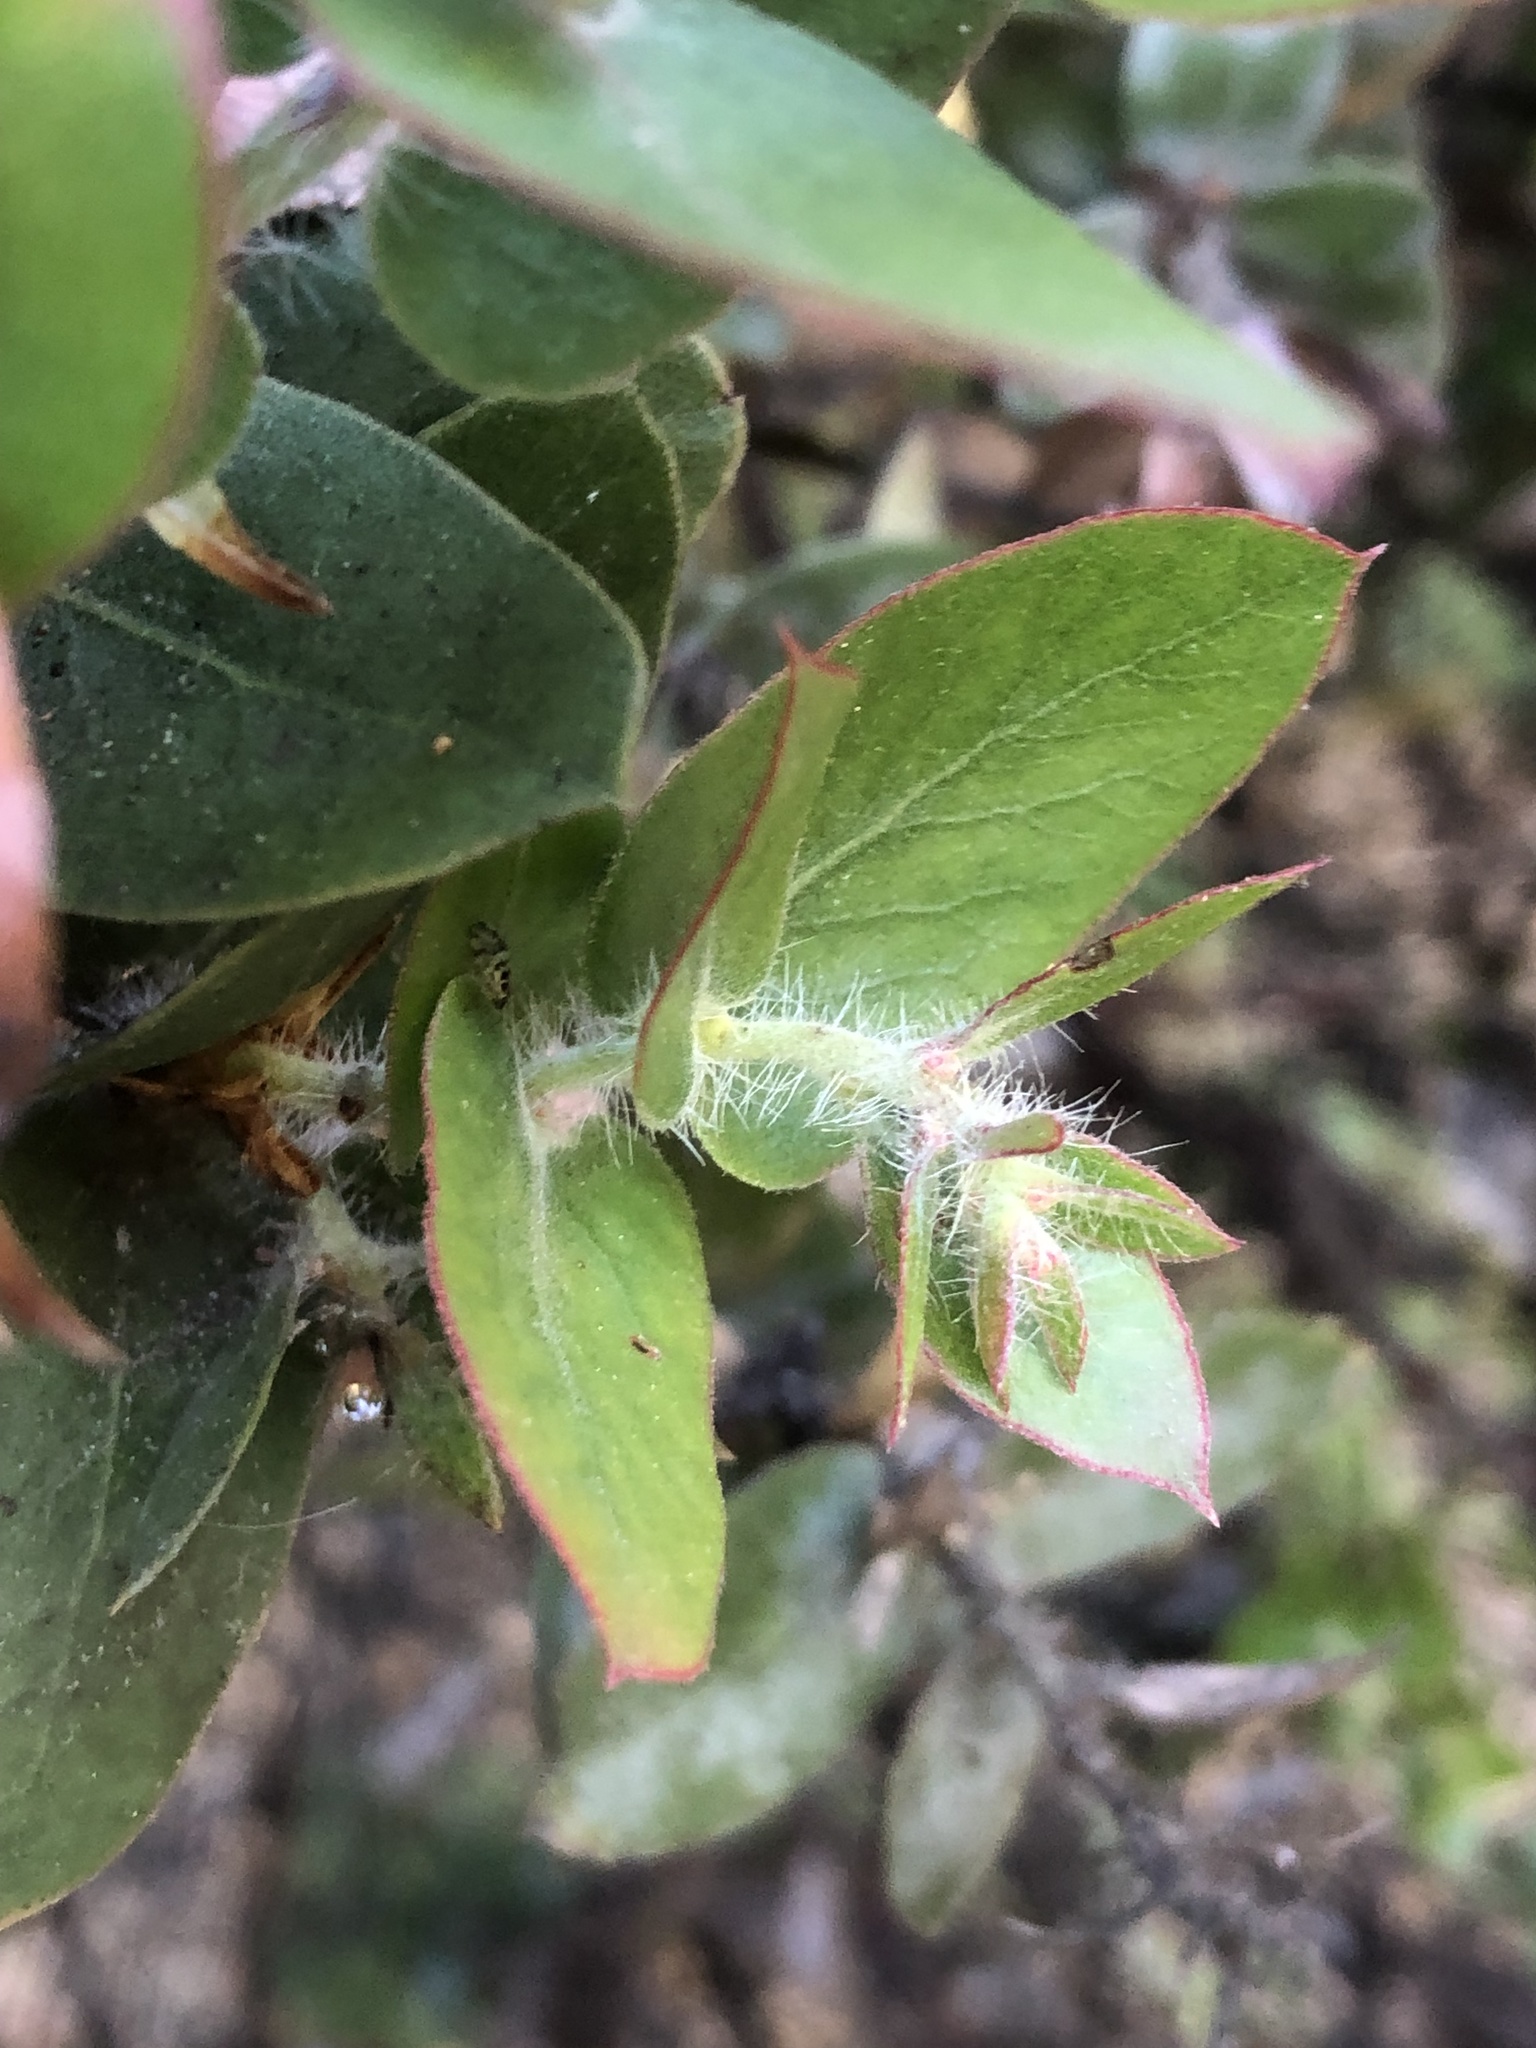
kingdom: Plantae
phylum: Tracheophyta
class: Magnoliopsida
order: Ericales
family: Ericaceae
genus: Arctostaphylos
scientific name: Arctostaphylos pechoensis
